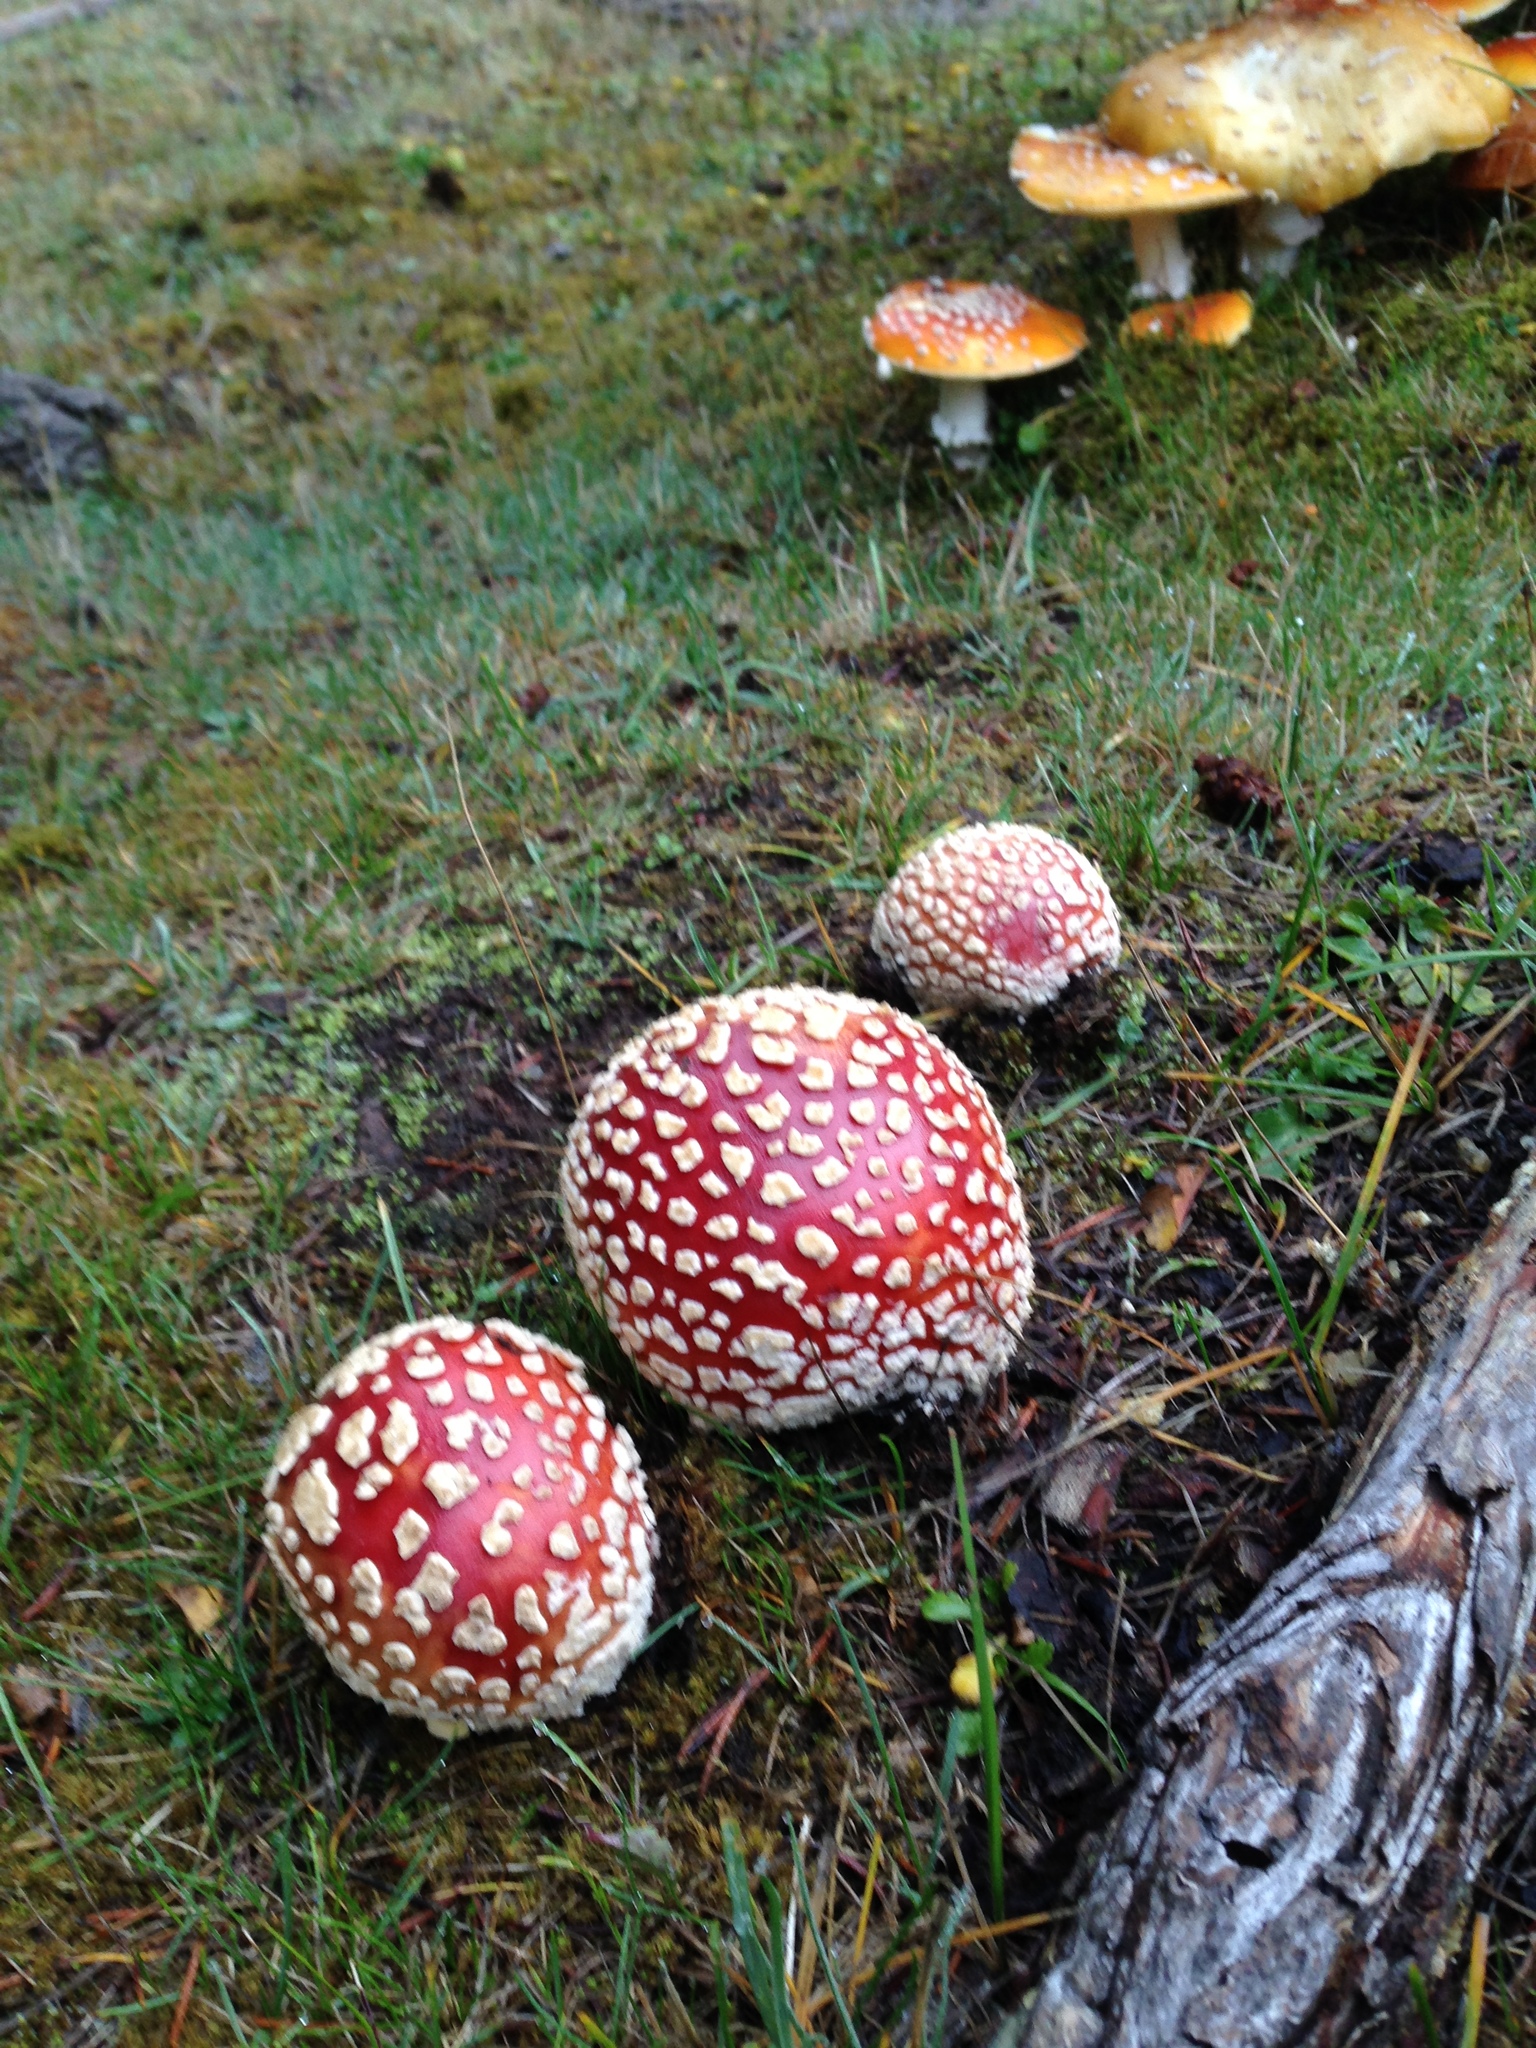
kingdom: Fungi
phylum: Basidiomycota
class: Agaricomycetes
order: Agaricales
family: Amanitaceae
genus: Amanita
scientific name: Amanita muscaria
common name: Fly agaric
